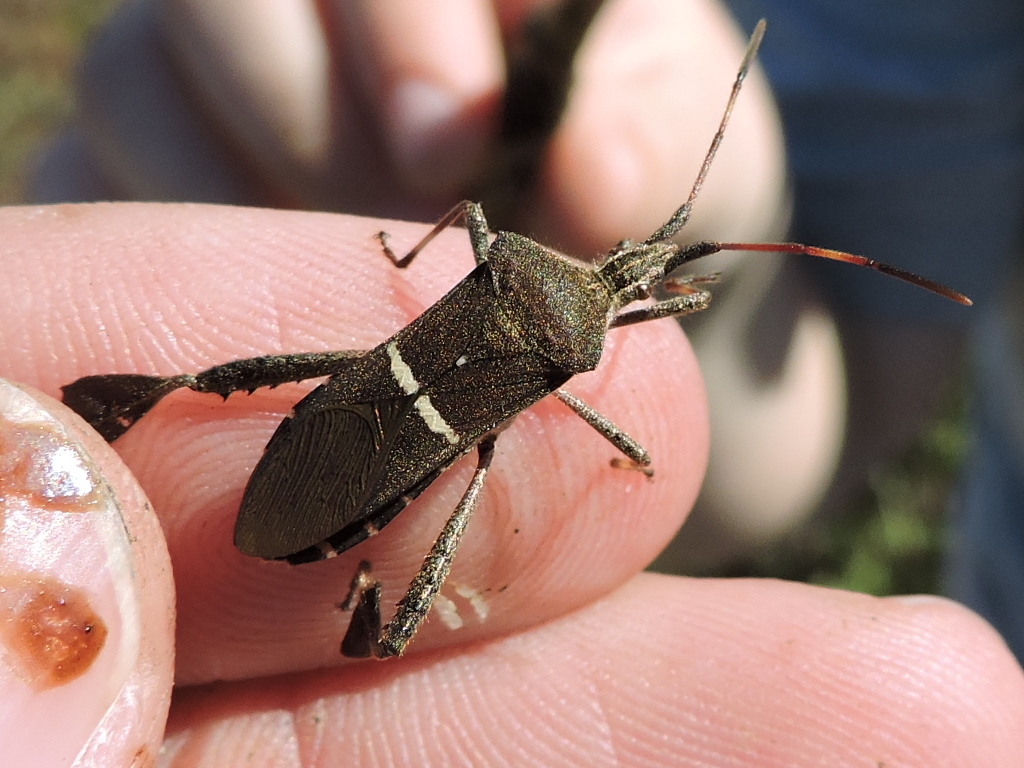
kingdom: Animalia
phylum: Arthropoda
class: Insecta
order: Hemiptera
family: Coreidae
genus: Leptoglossus
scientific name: Leptoglossus phyllopus
